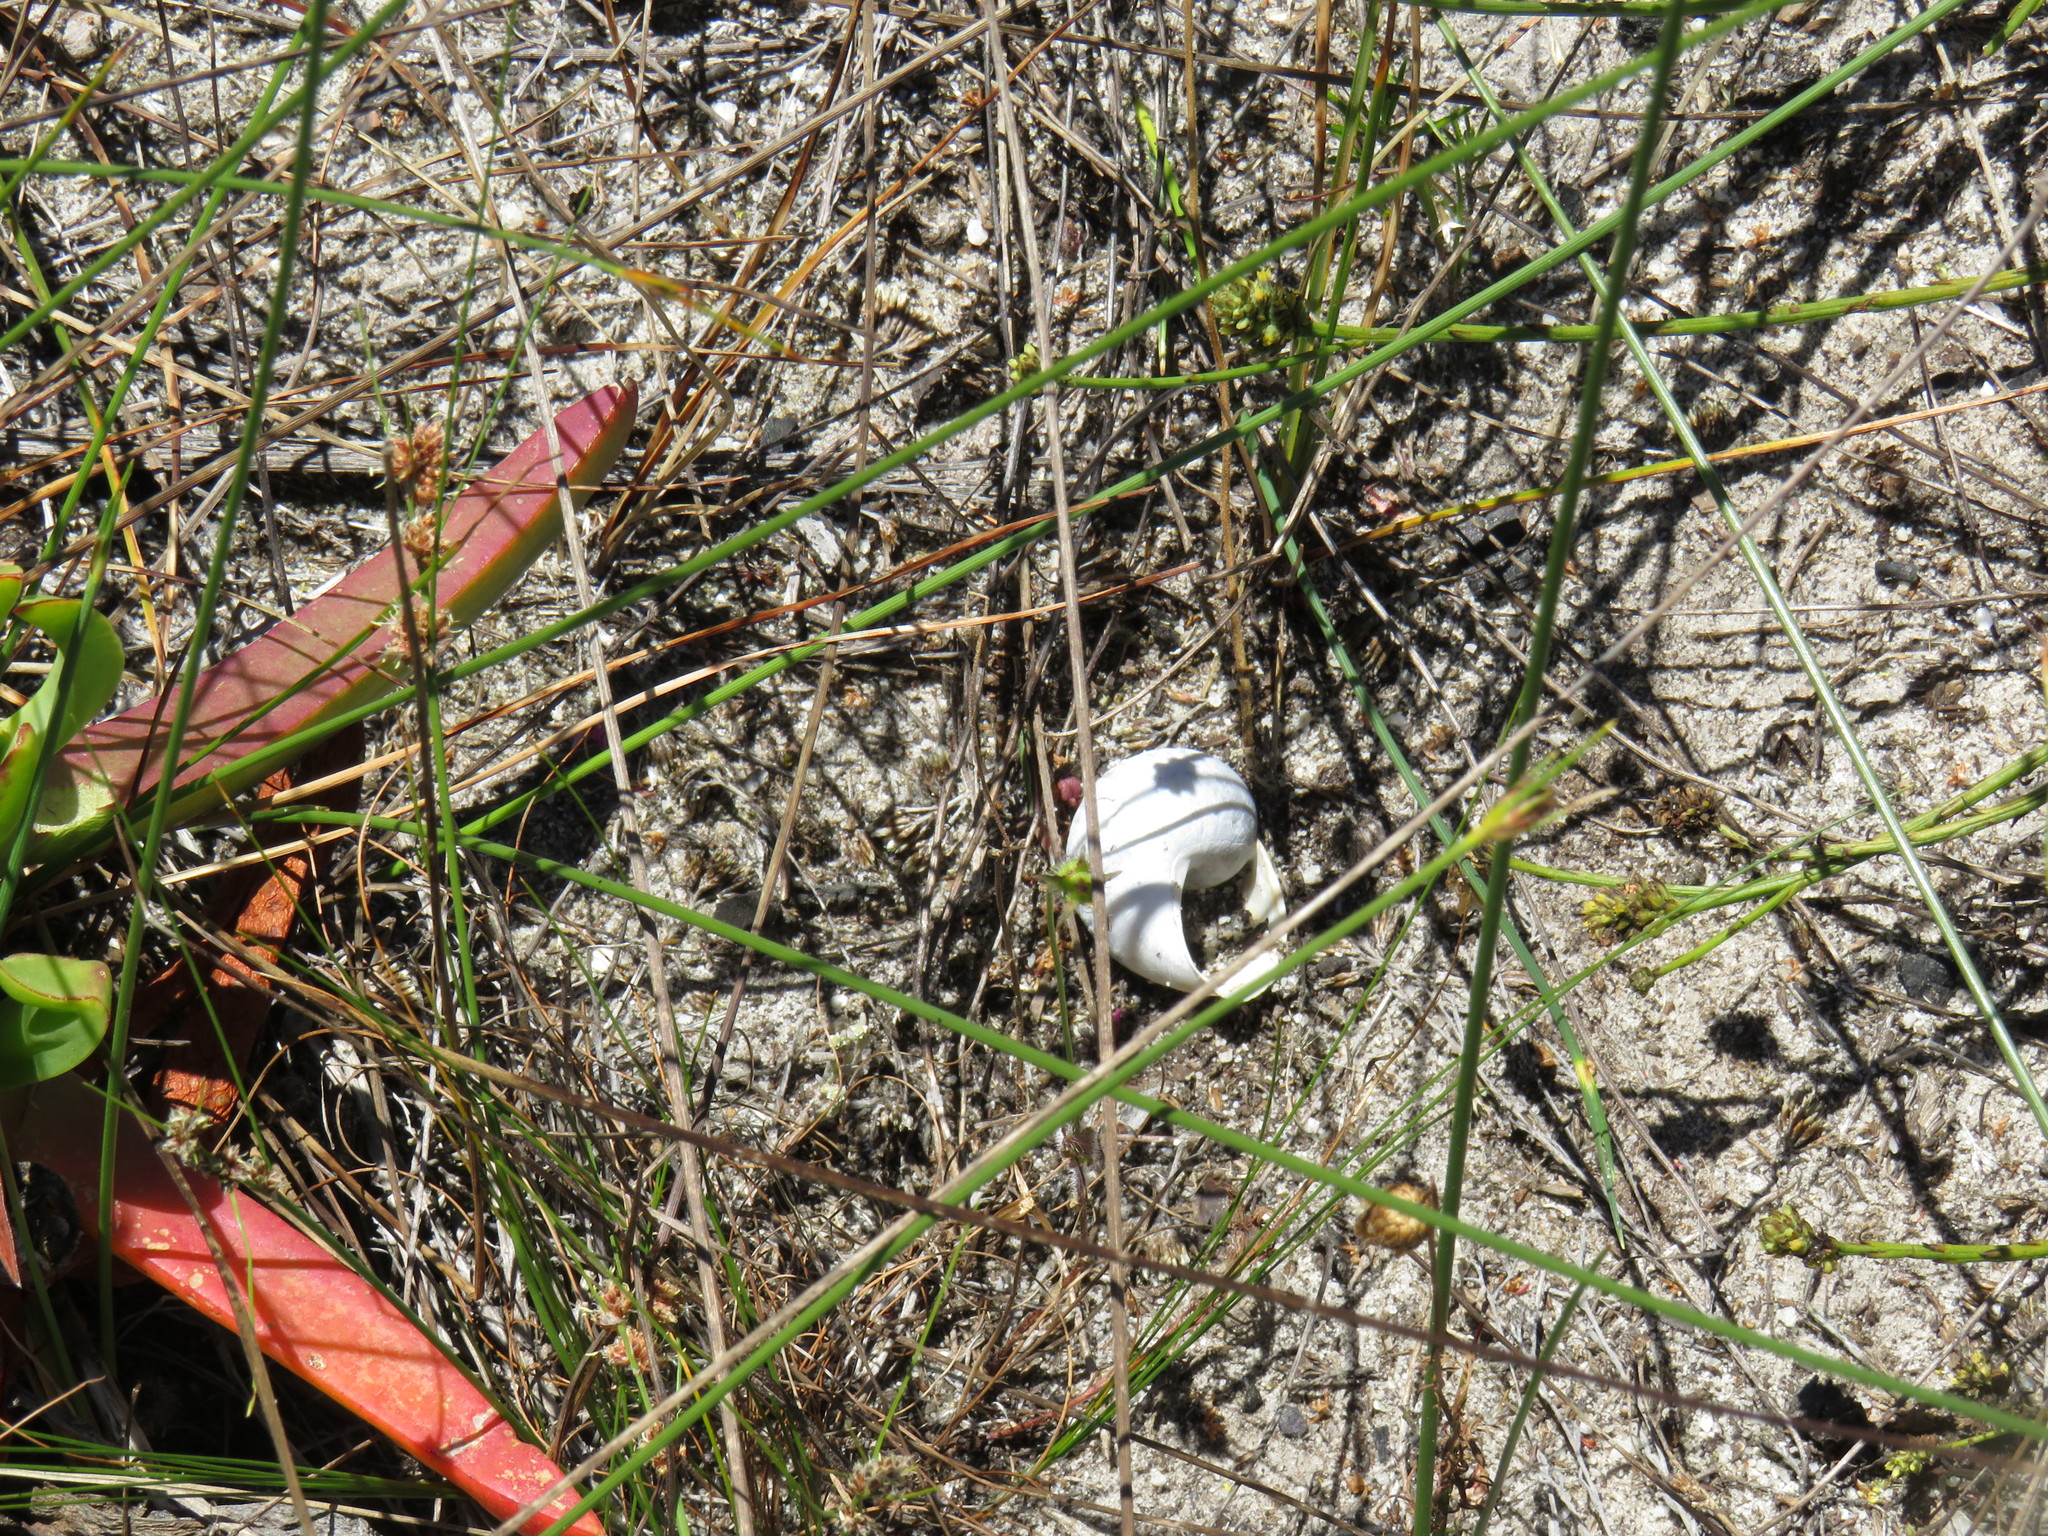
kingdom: Animalia
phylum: Mollusca
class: Gastropoda
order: Stylommatophora
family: Helicidae
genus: Cornu
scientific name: Cornu aspersum
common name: Brown garden snail
